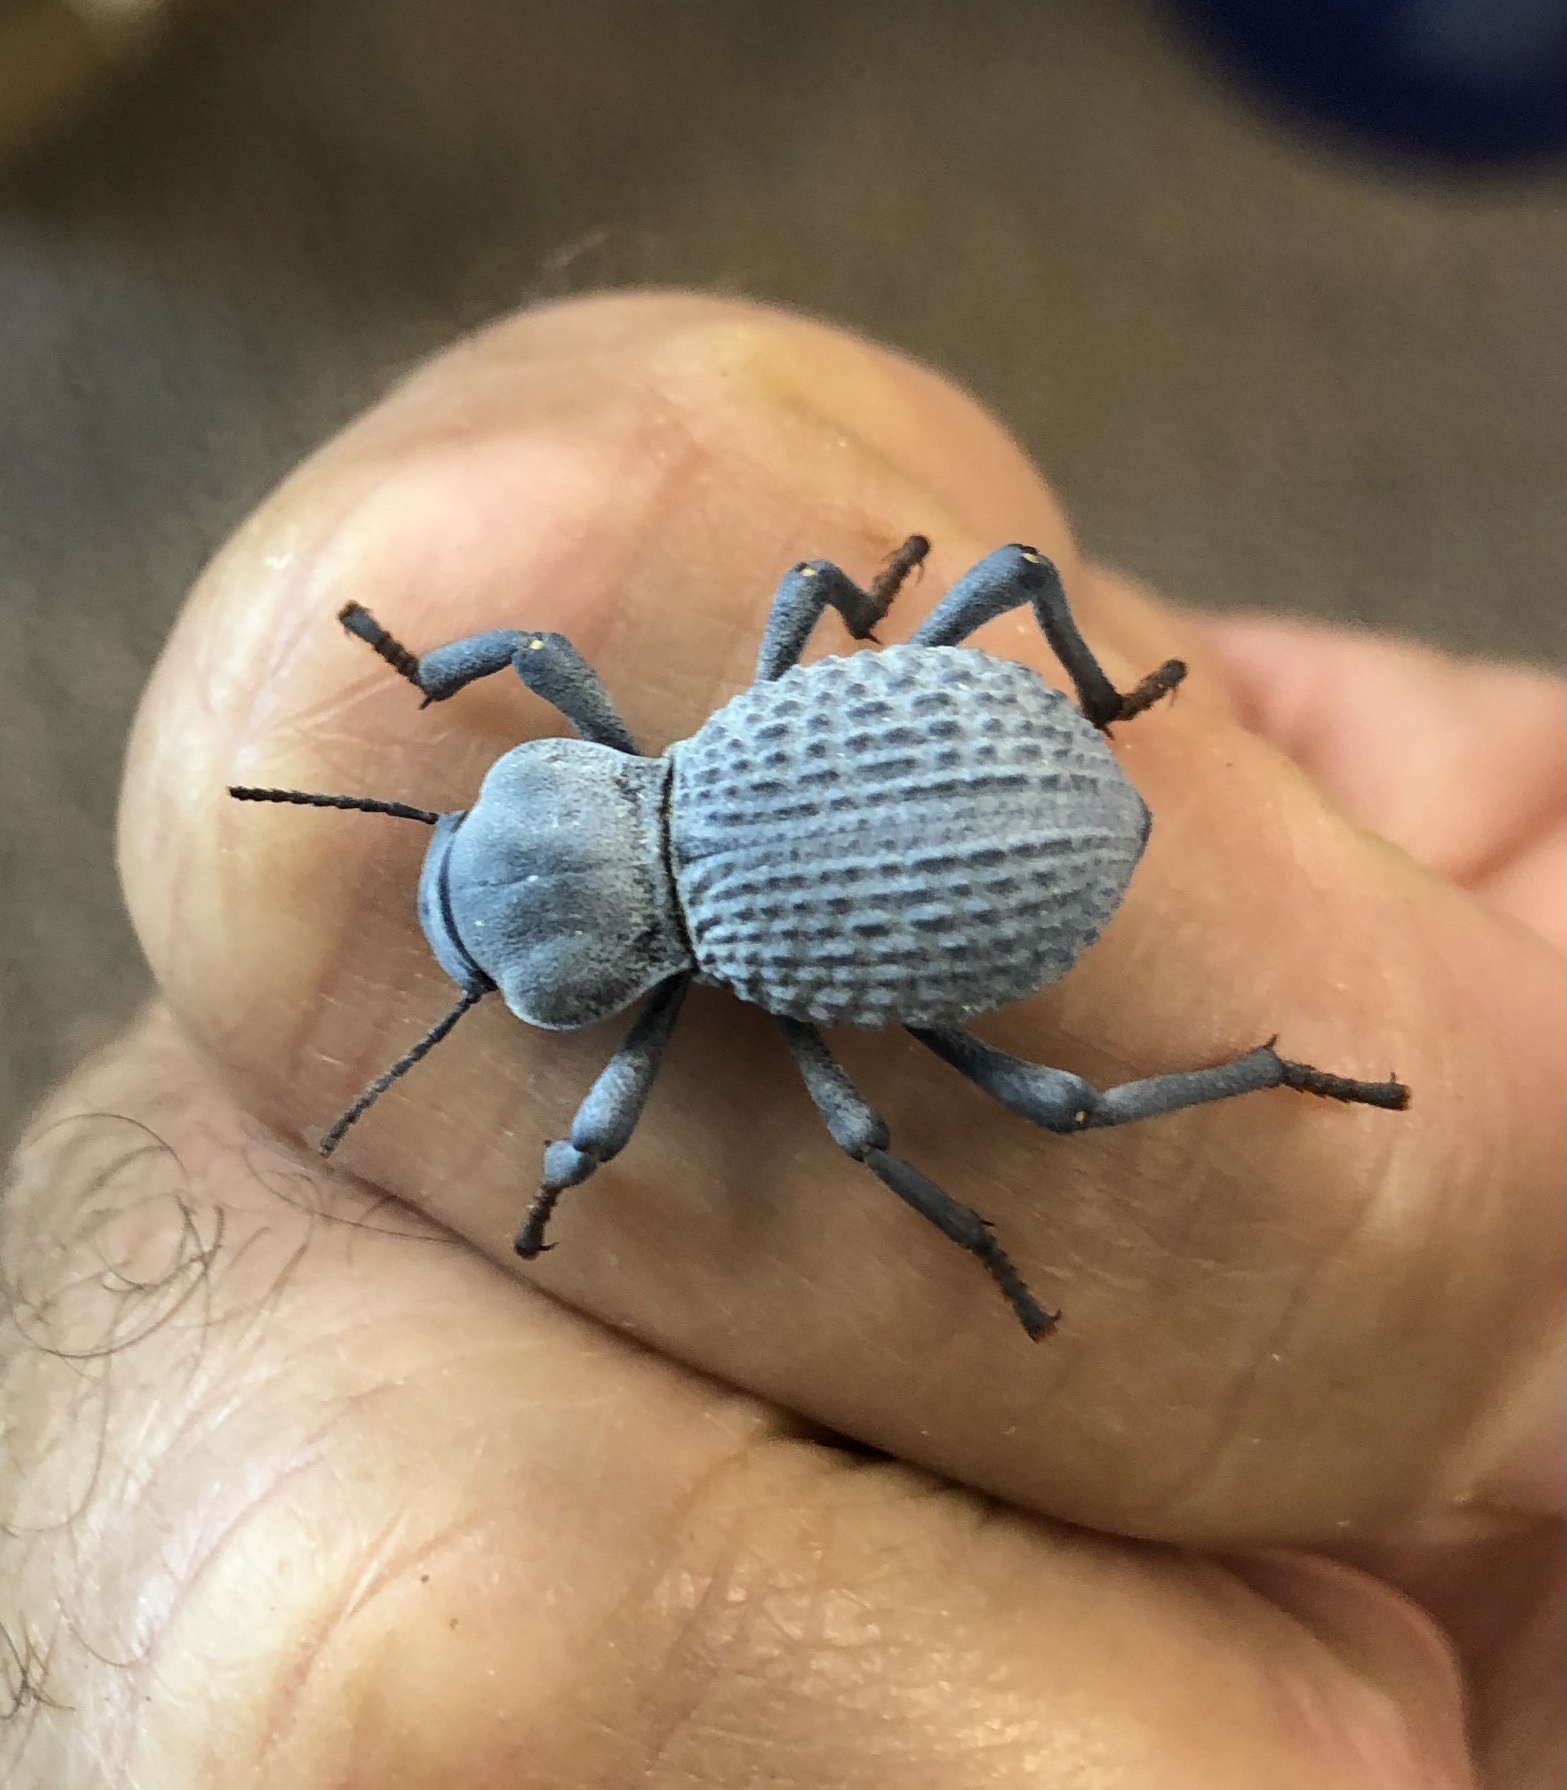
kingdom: Animalia
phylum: Arthropoda
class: Insecta
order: Coleoptera
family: Tenebrionidae
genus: Asbolus
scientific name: Asbolus verrucosus
